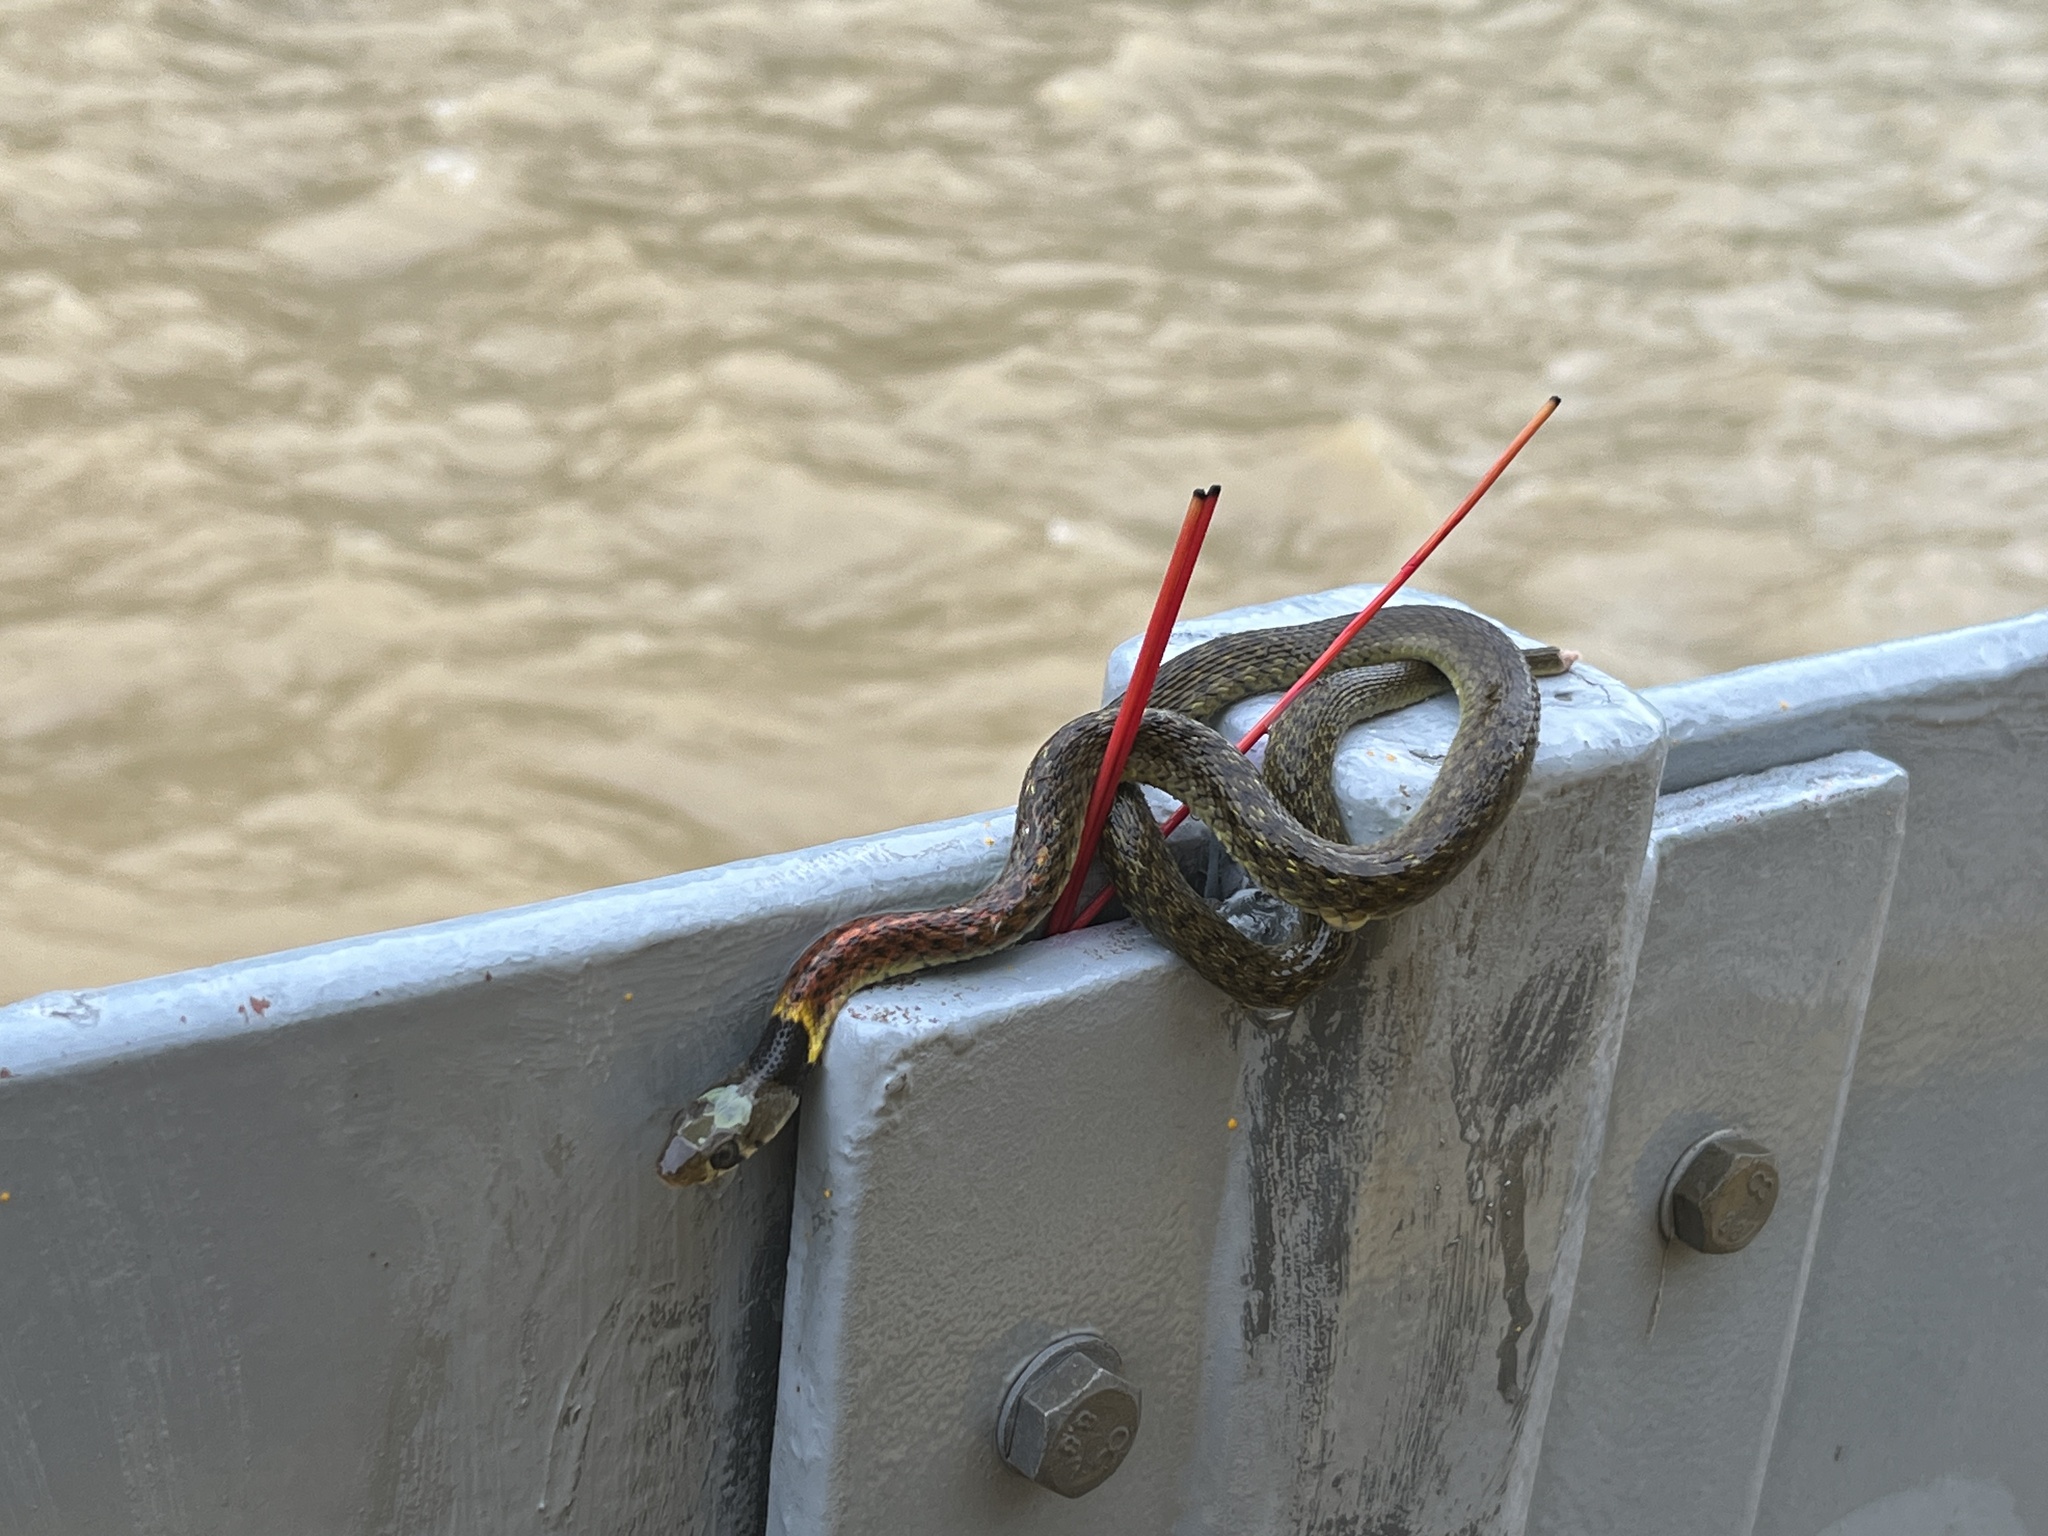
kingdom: Animalia
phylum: Chordata
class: Squamata
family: Colubridae
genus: Rhabdophis
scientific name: Rhabdophis helleri
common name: Heller’s red-necked keelback
